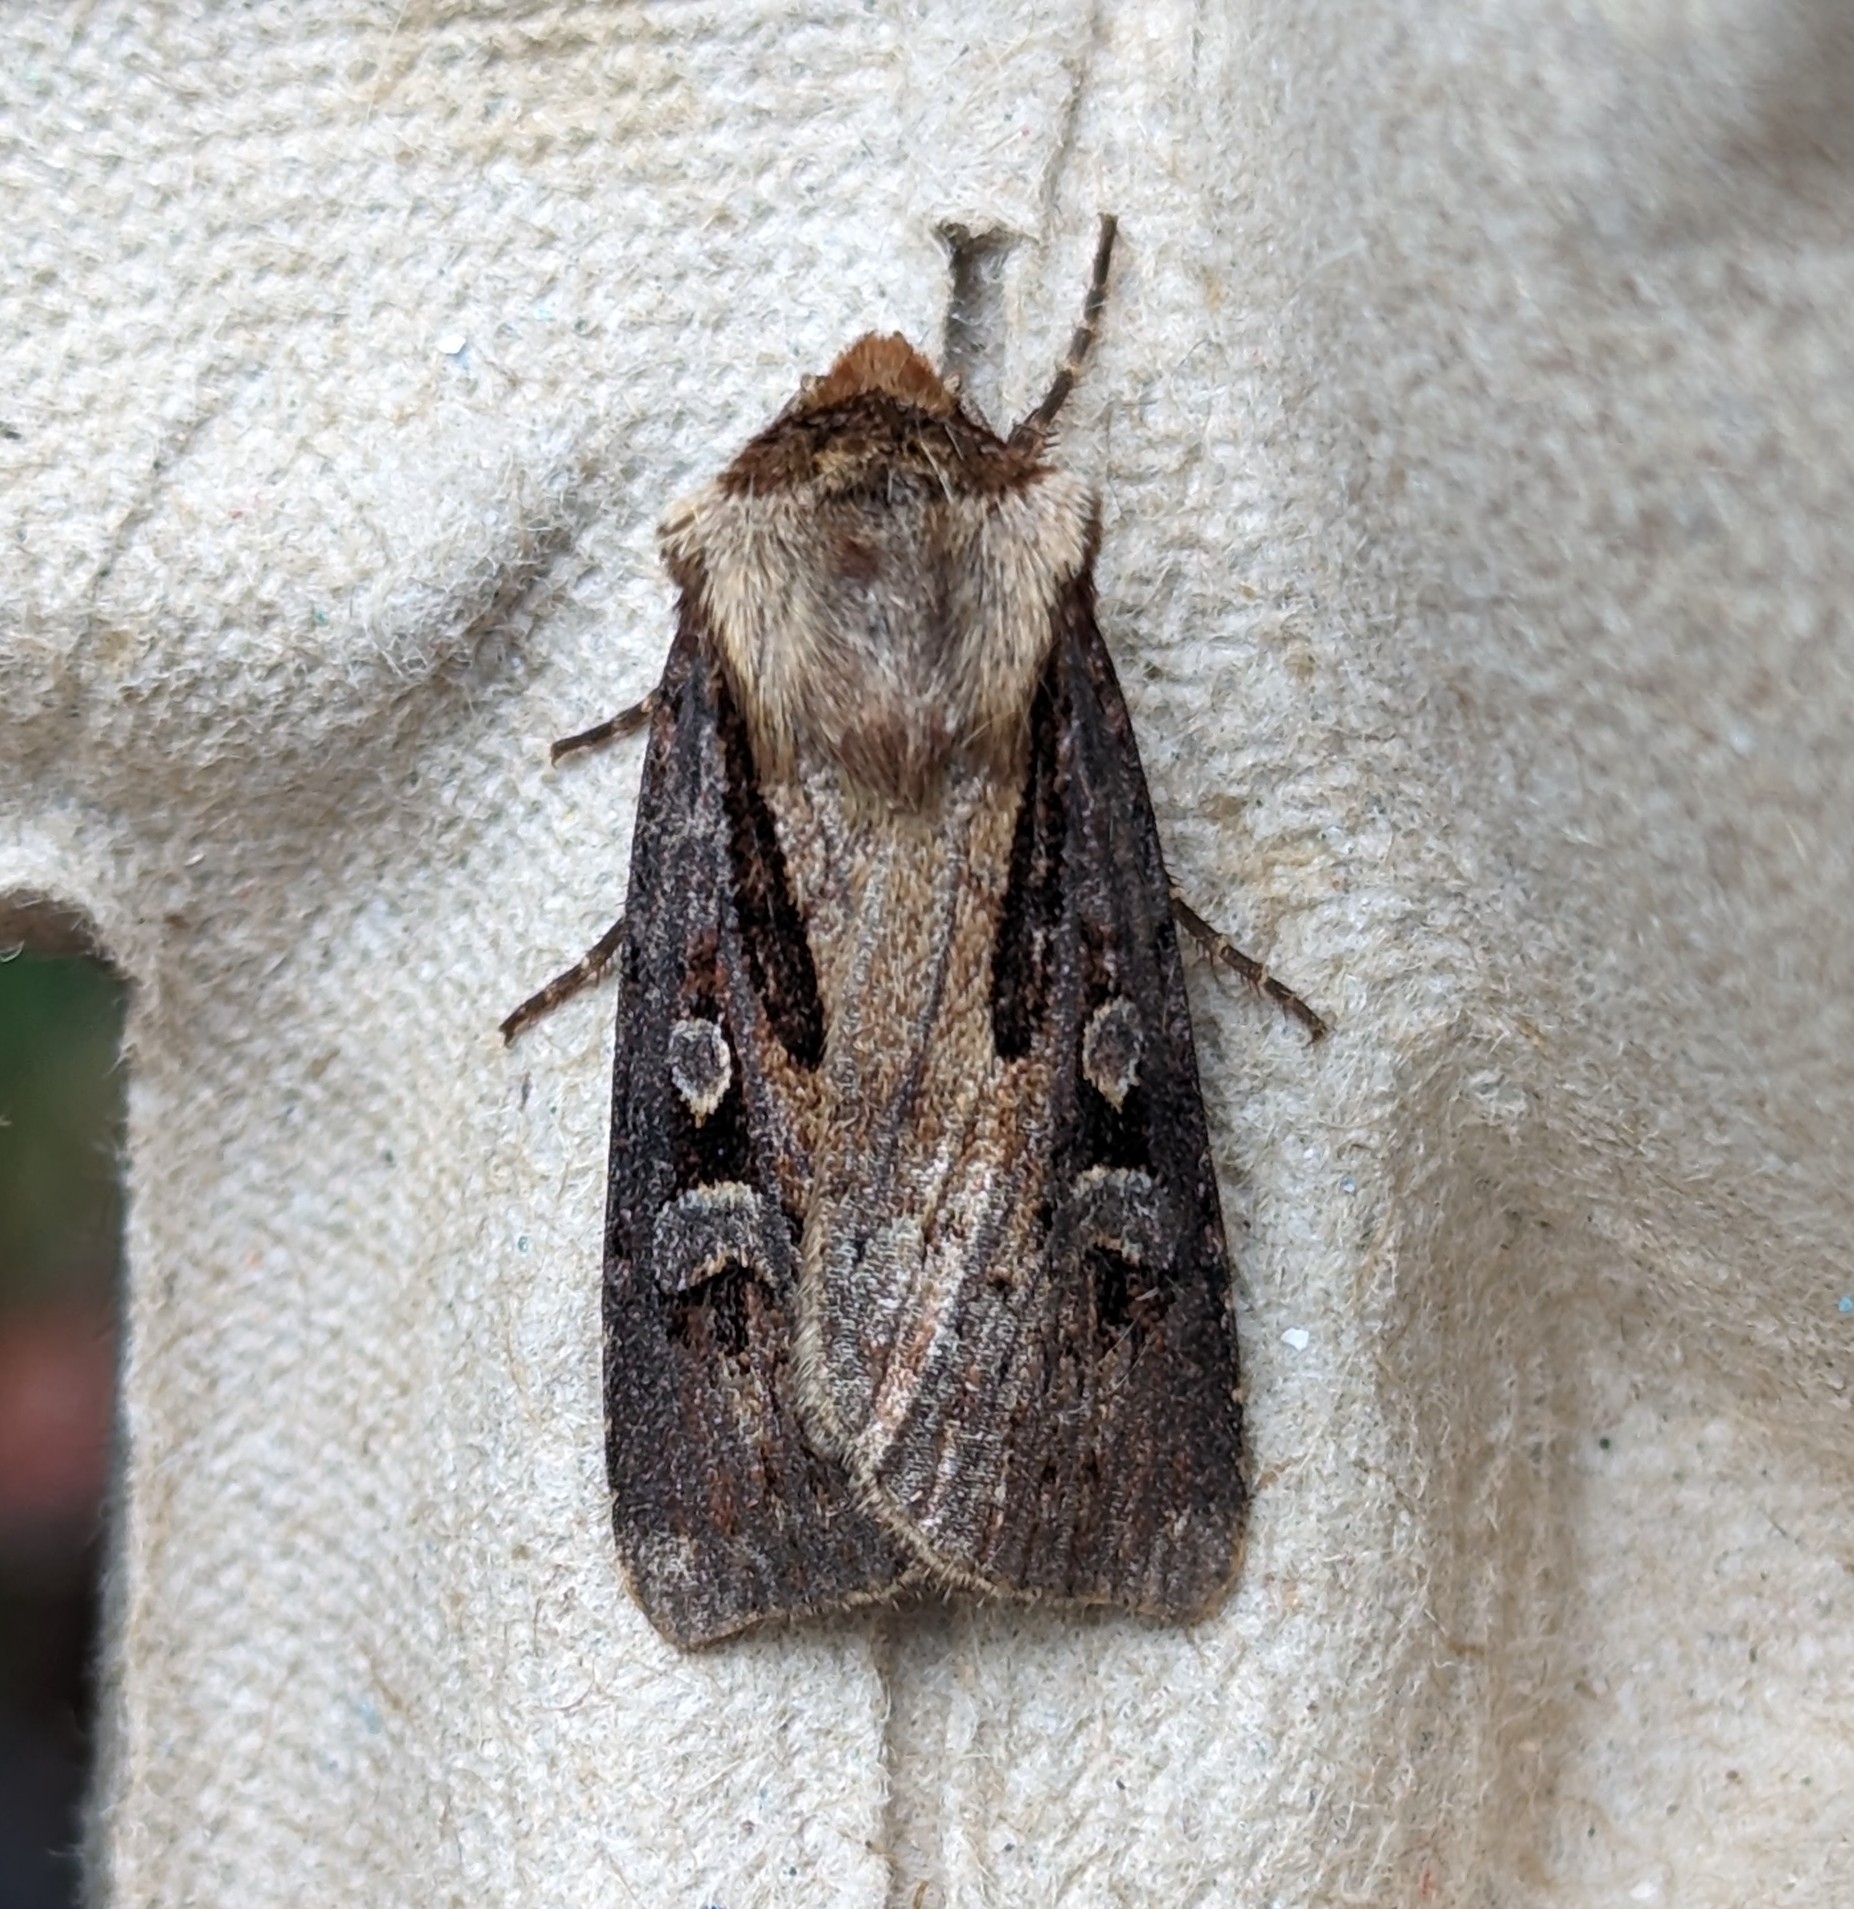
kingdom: Animalia
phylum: Arthropoda
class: Insecta
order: Lepidoptera
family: Noctuidae
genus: Agrotis
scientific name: Agrotis vancouverensis
